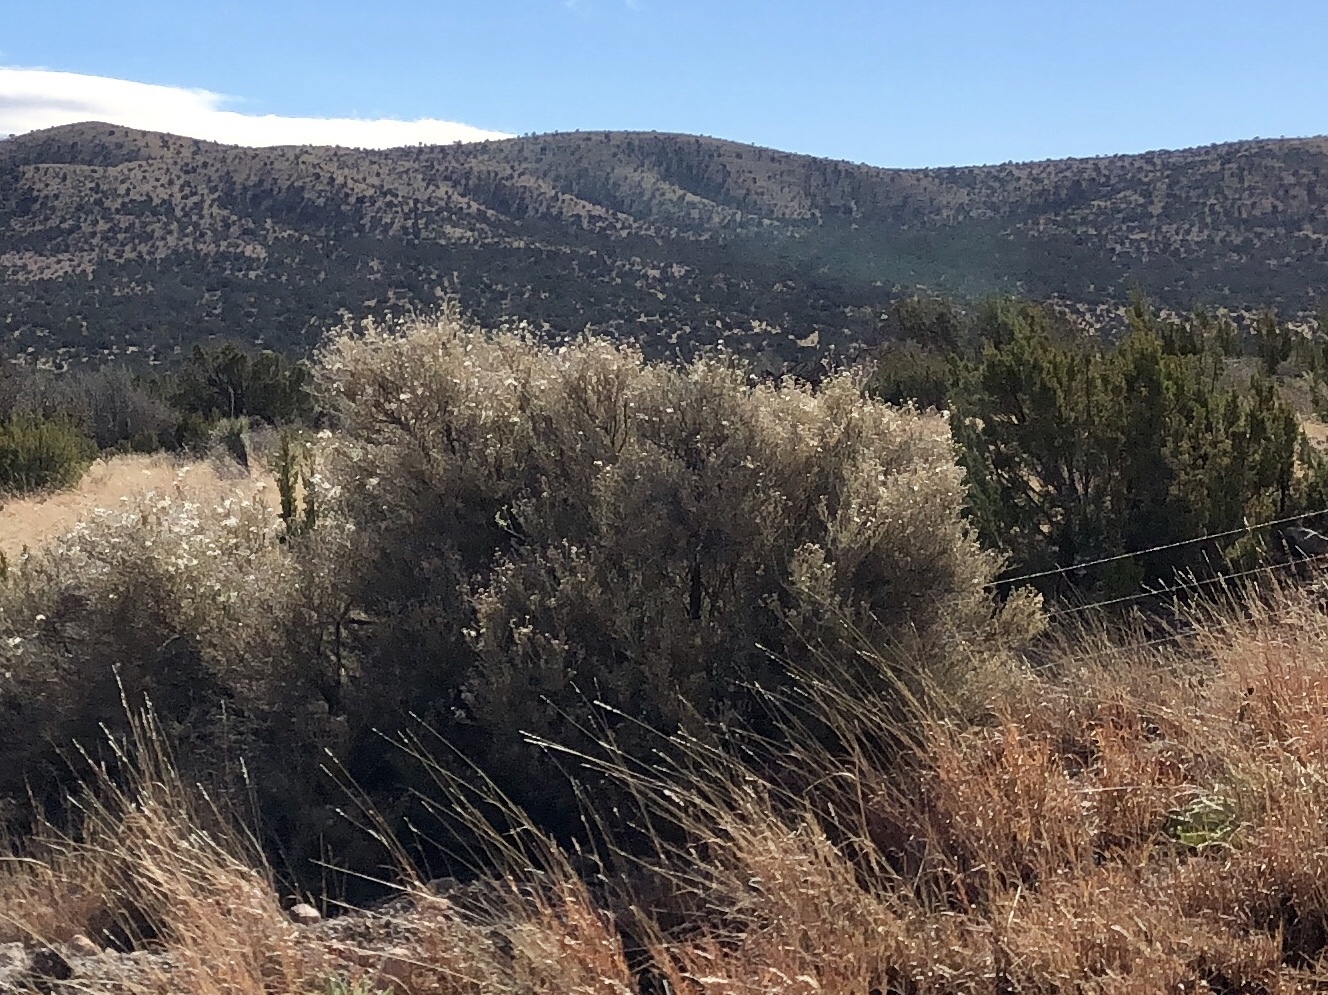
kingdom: Plantae
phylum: Tracheophyta
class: Magnoliopsida
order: Rosales
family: Rosaceae
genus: Fallugia
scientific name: Fallugia paradoxa
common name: Apache-plume
